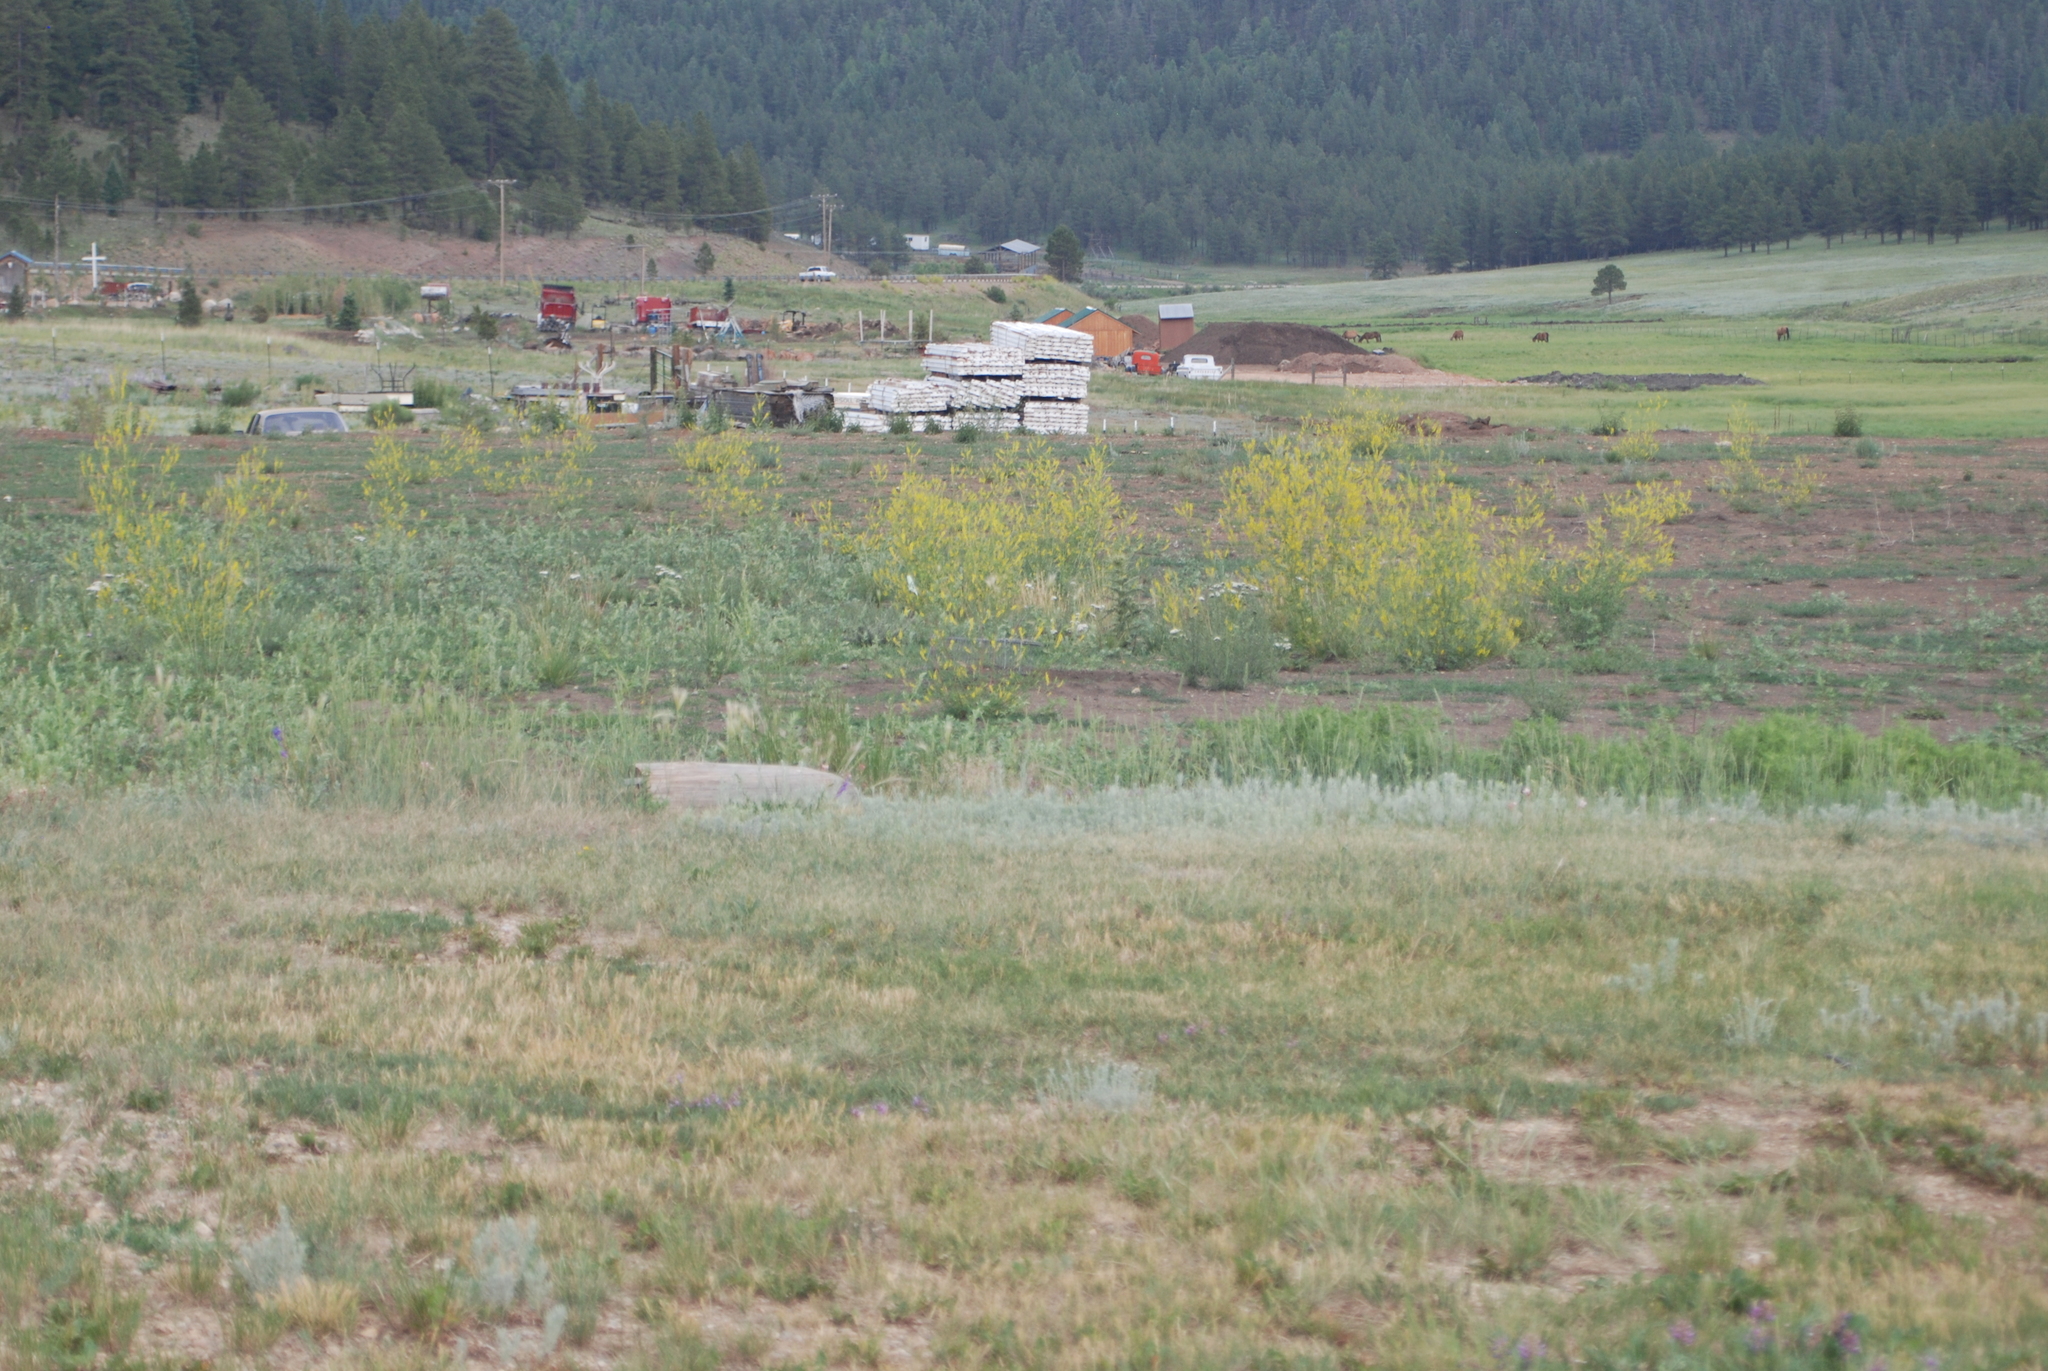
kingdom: Plantae
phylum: Tracheophyta
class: Magnoliopsida
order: Fabales
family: Fabaceae
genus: Melilotus
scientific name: Melilotus officinalis
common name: Sweetclover
